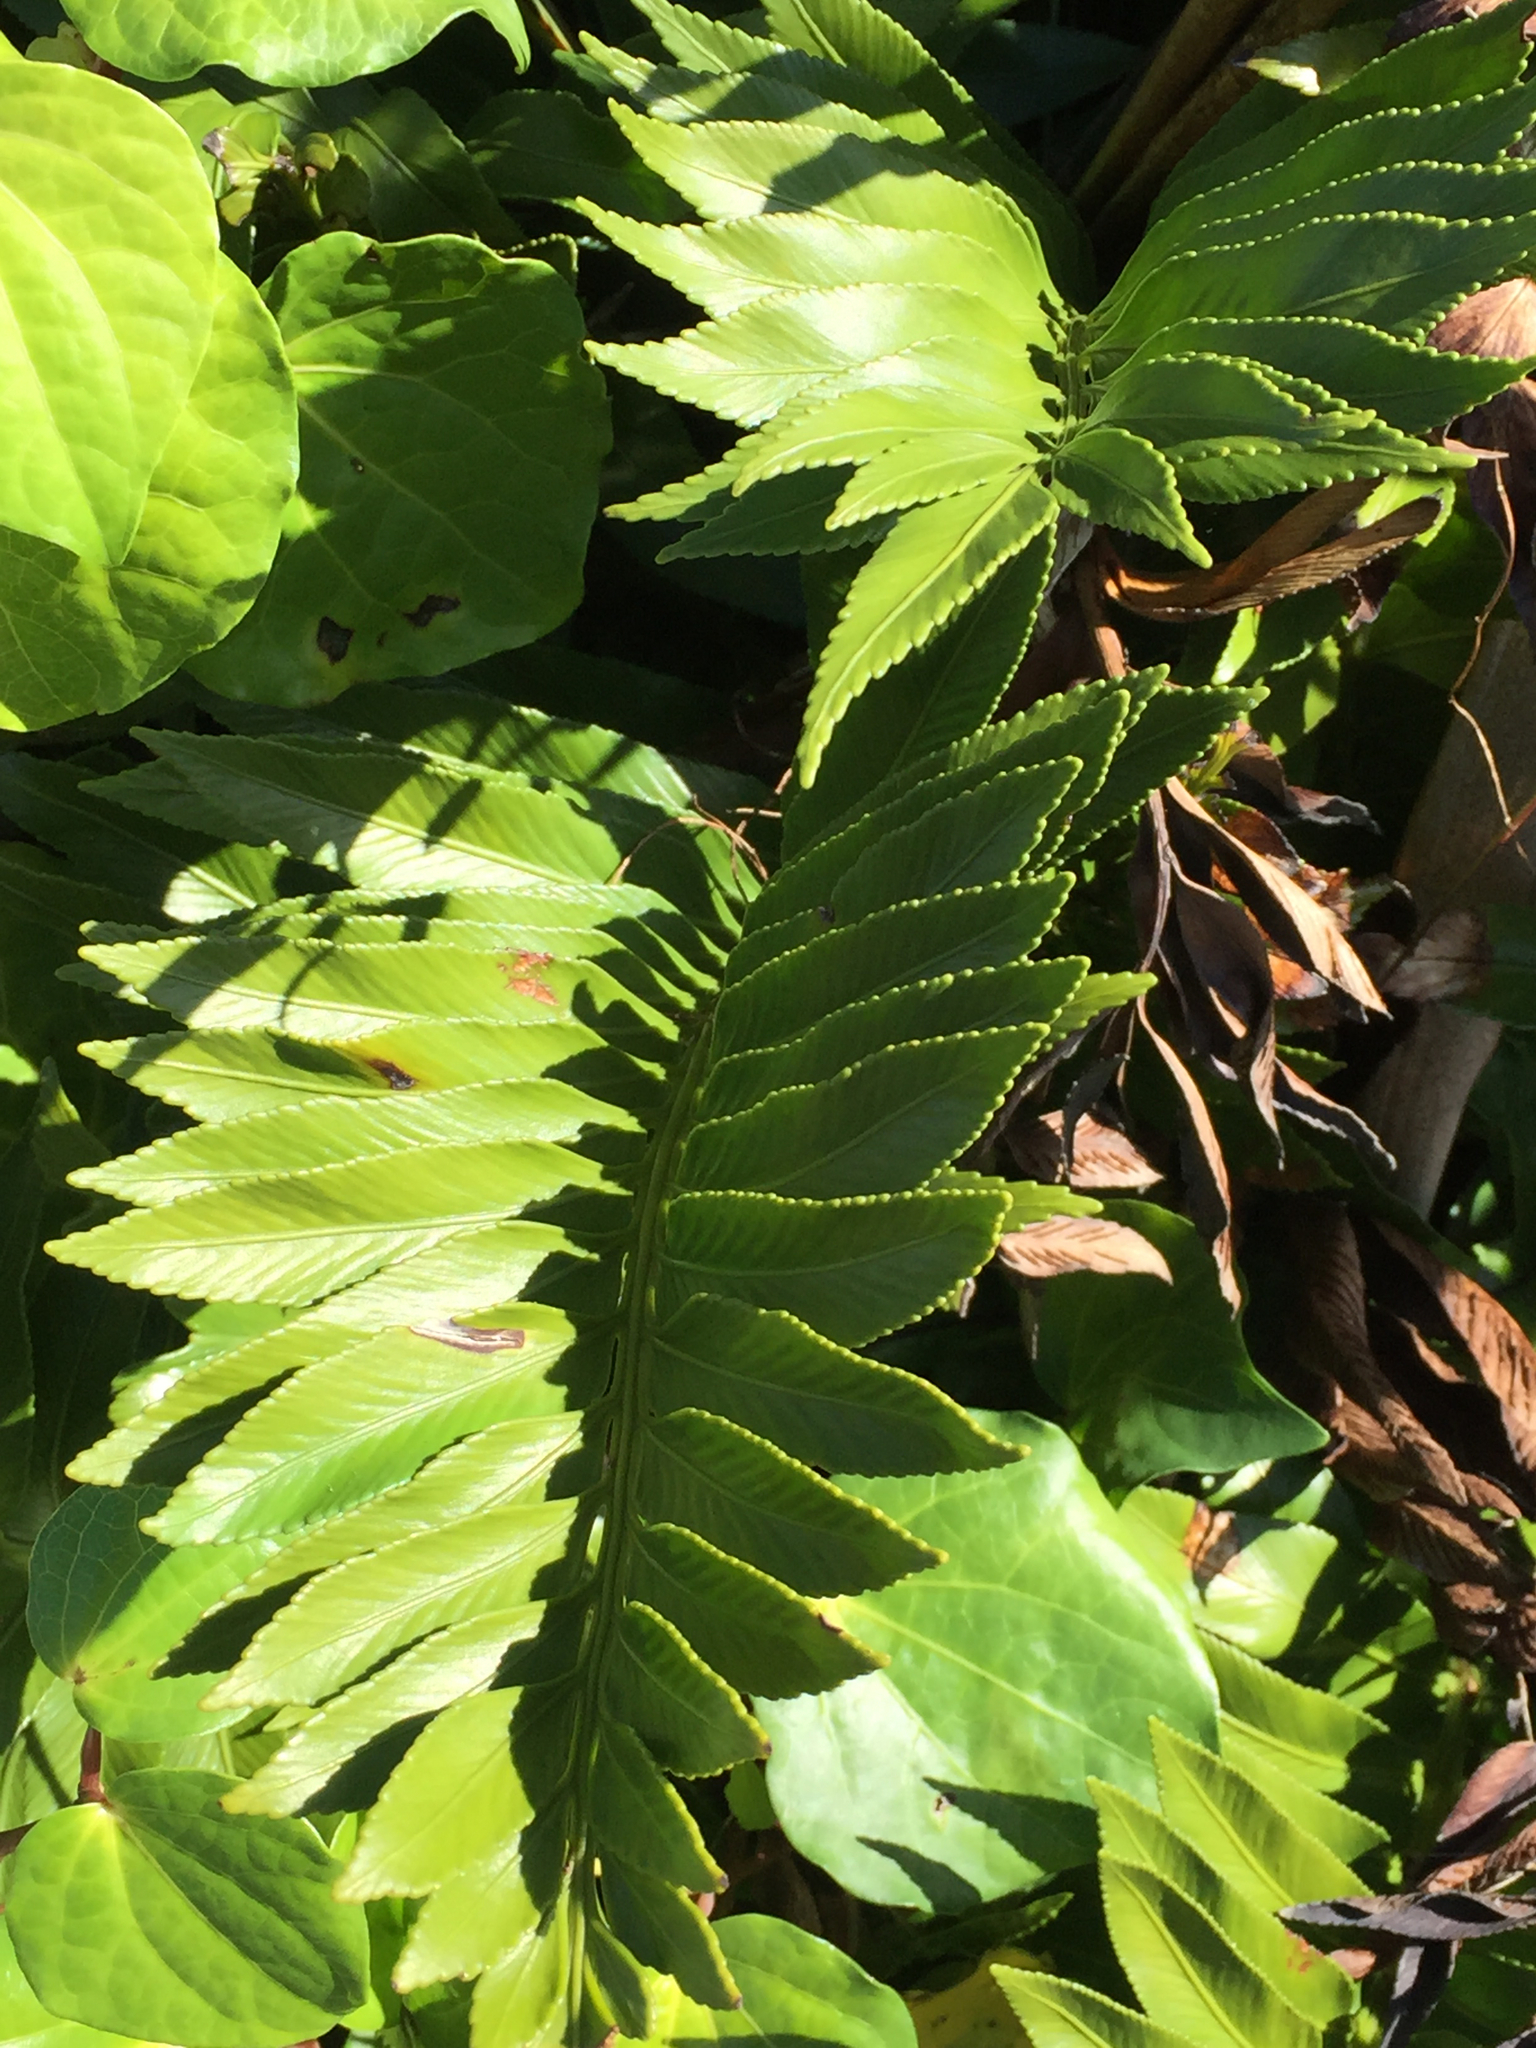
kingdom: Plantae
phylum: Tracheophyta
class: Polypodiopsida
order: Polypodiales
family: Aspleniaceae
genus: Asplenium
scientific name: Asplenium obtusatum
